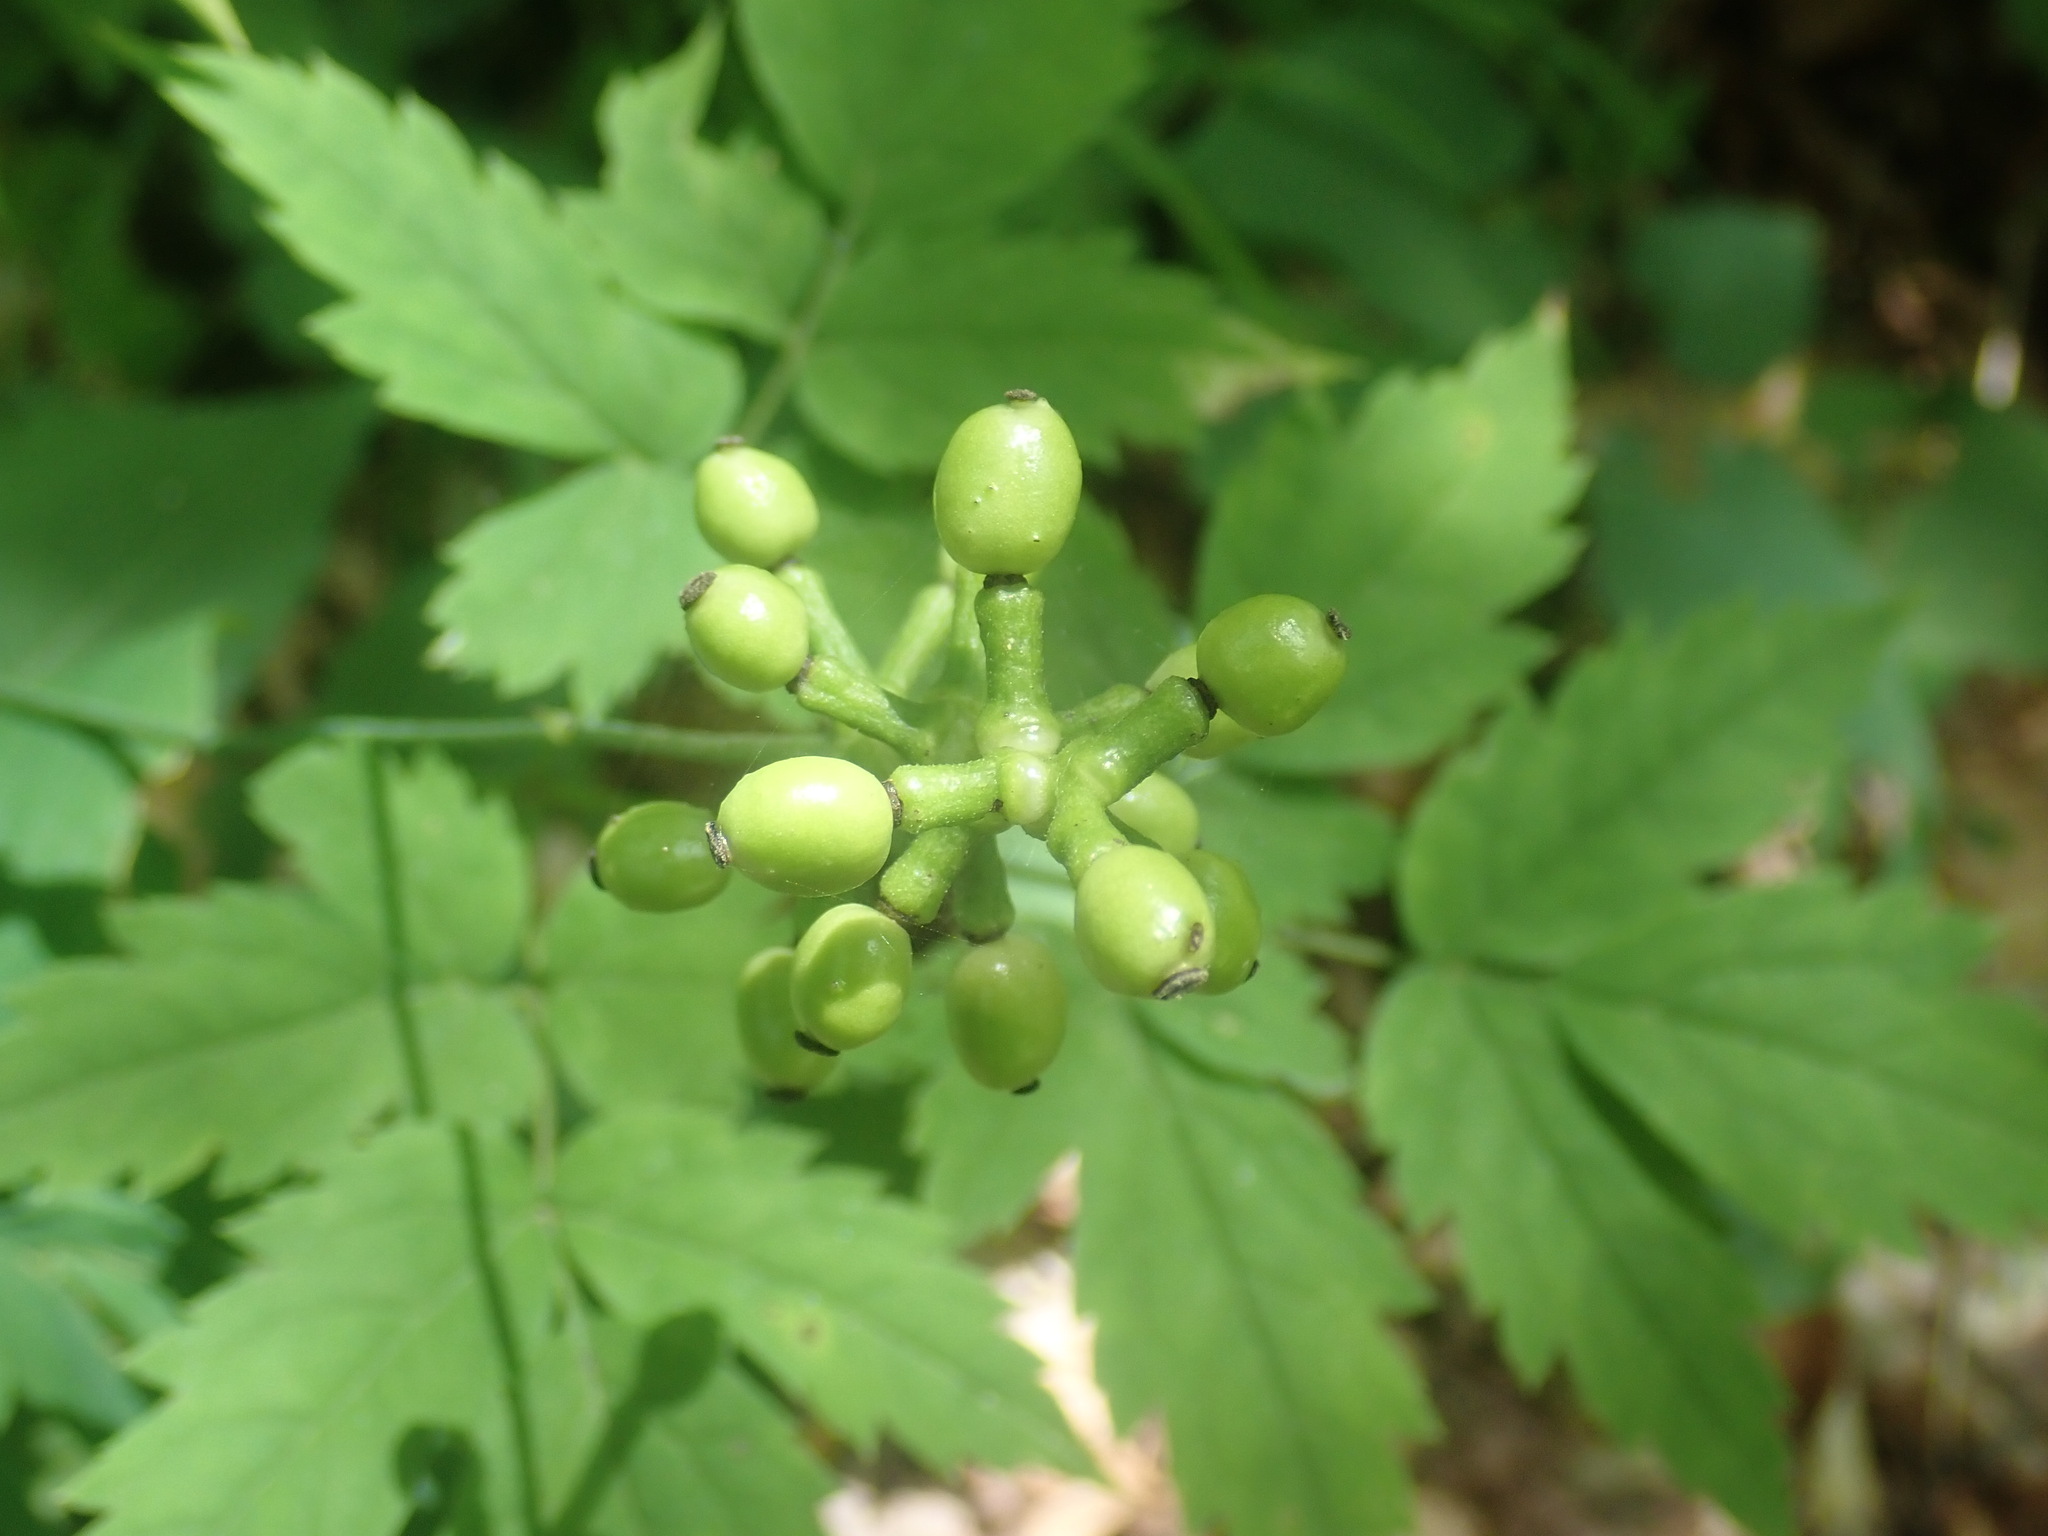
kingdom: Plantae
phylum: Tracheophyta
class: Magnoliopsida
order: Ranunculales
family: Ranunculaceae
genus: Actaea
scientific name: Actaea pachypoda
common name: Doll's-eyes
